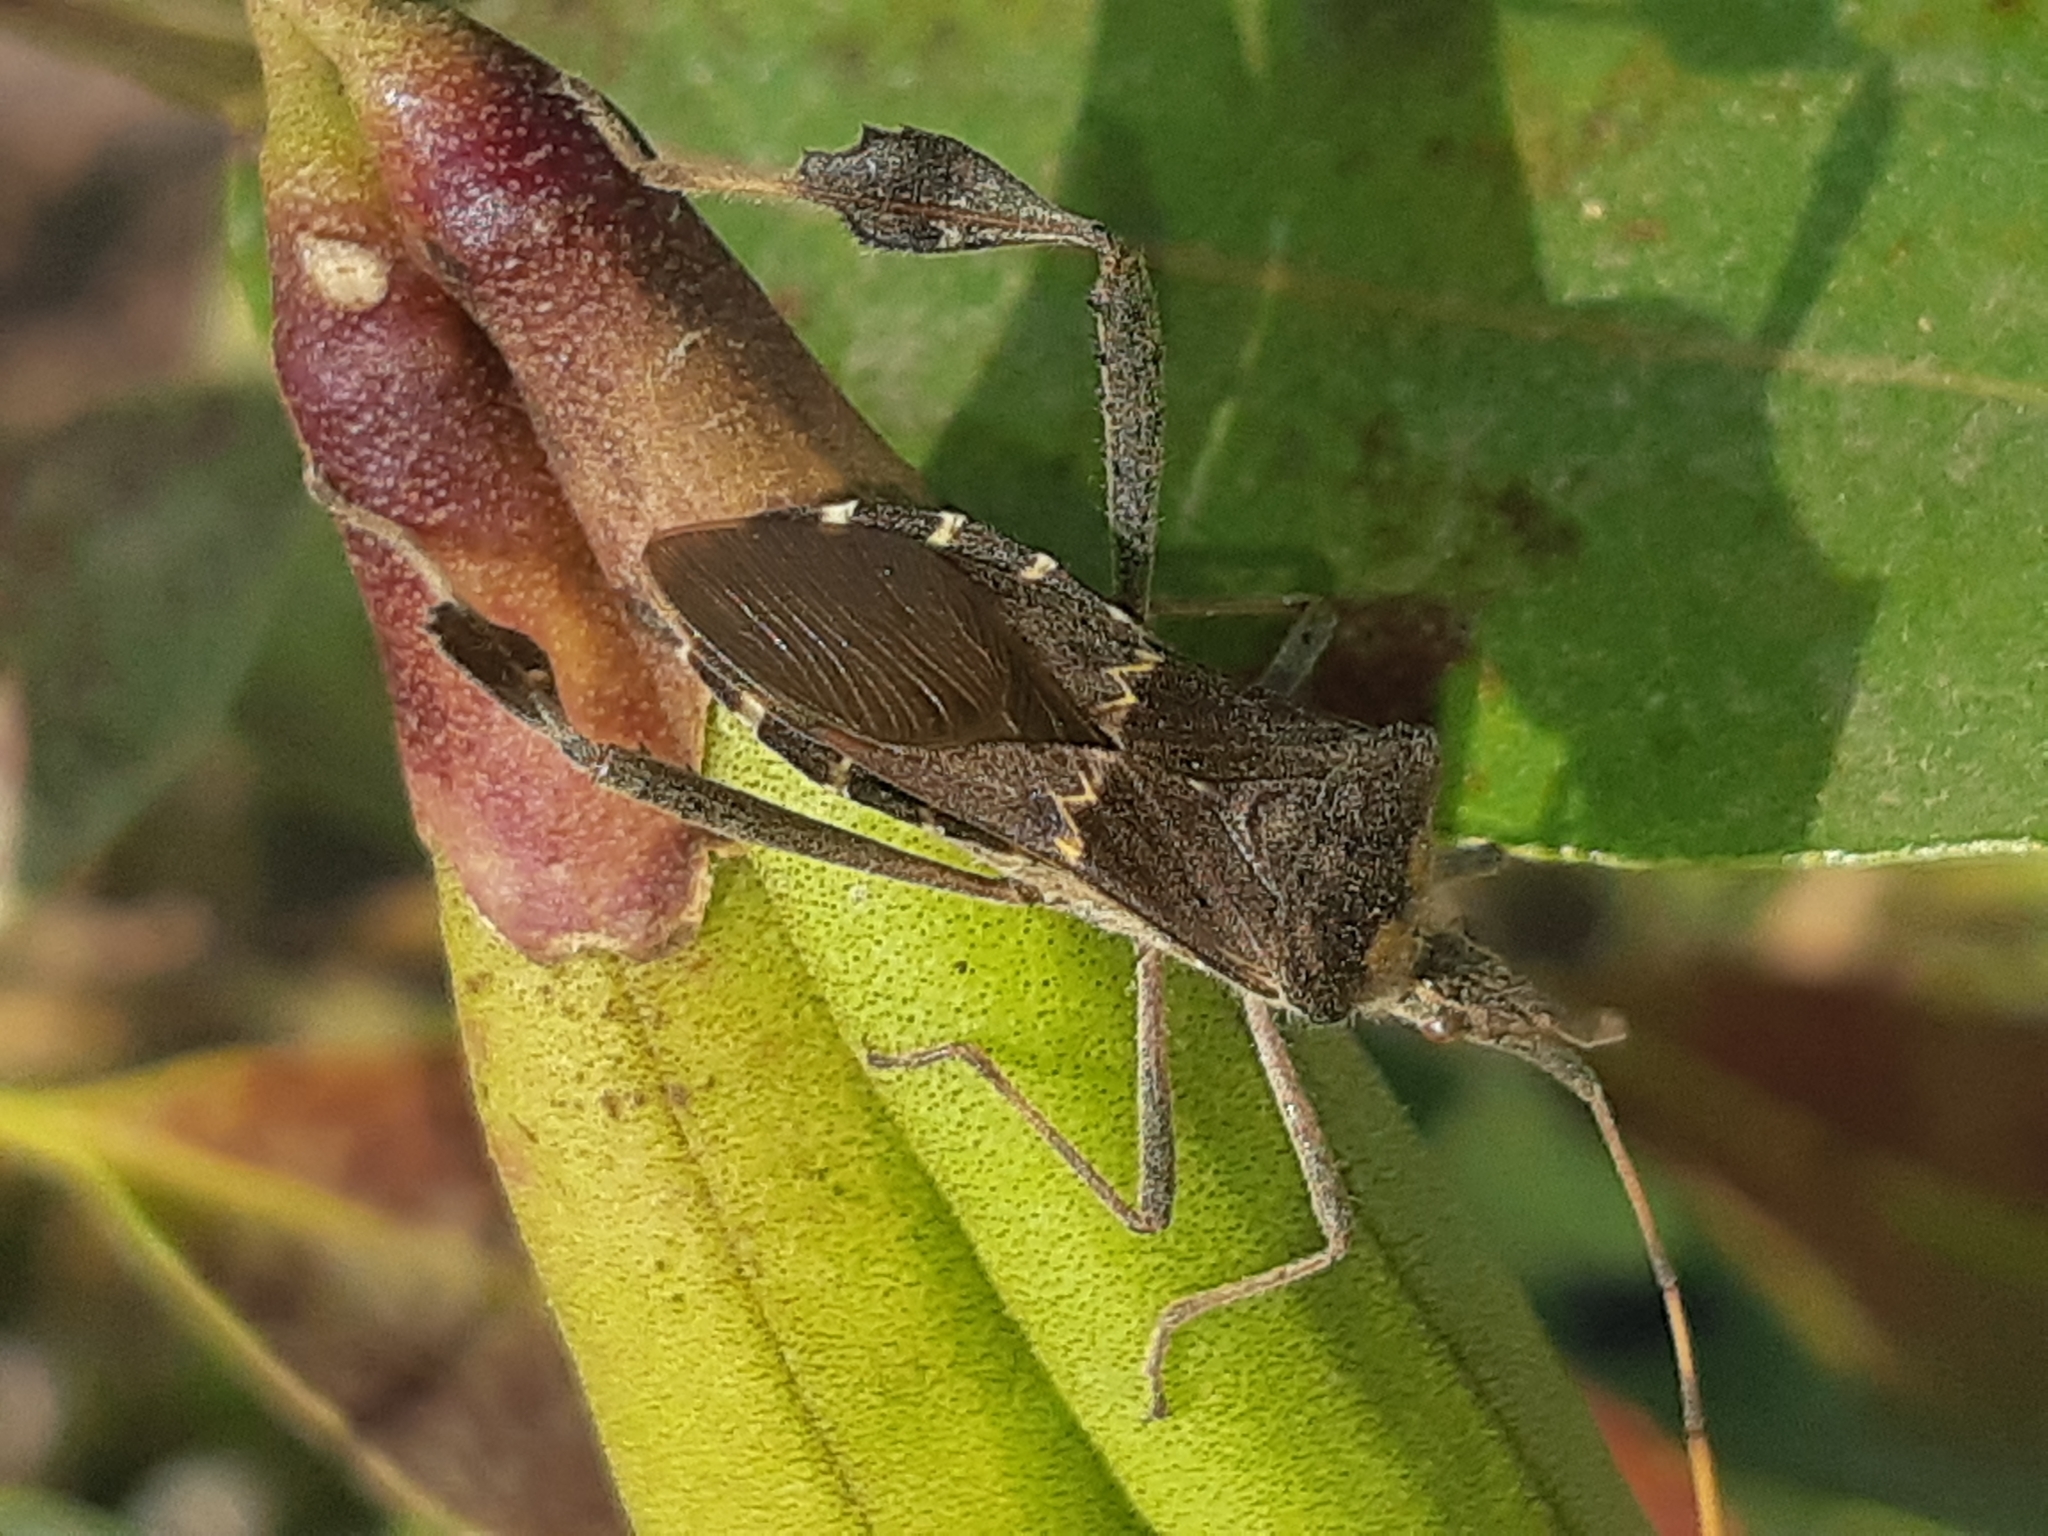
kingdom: Animalia
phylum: Arthropoda
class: Insecta
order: Hemiptera
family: Coreidae
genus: Leptoglossus
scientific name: Leptoglossus zonatus
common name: Large-legged bug
